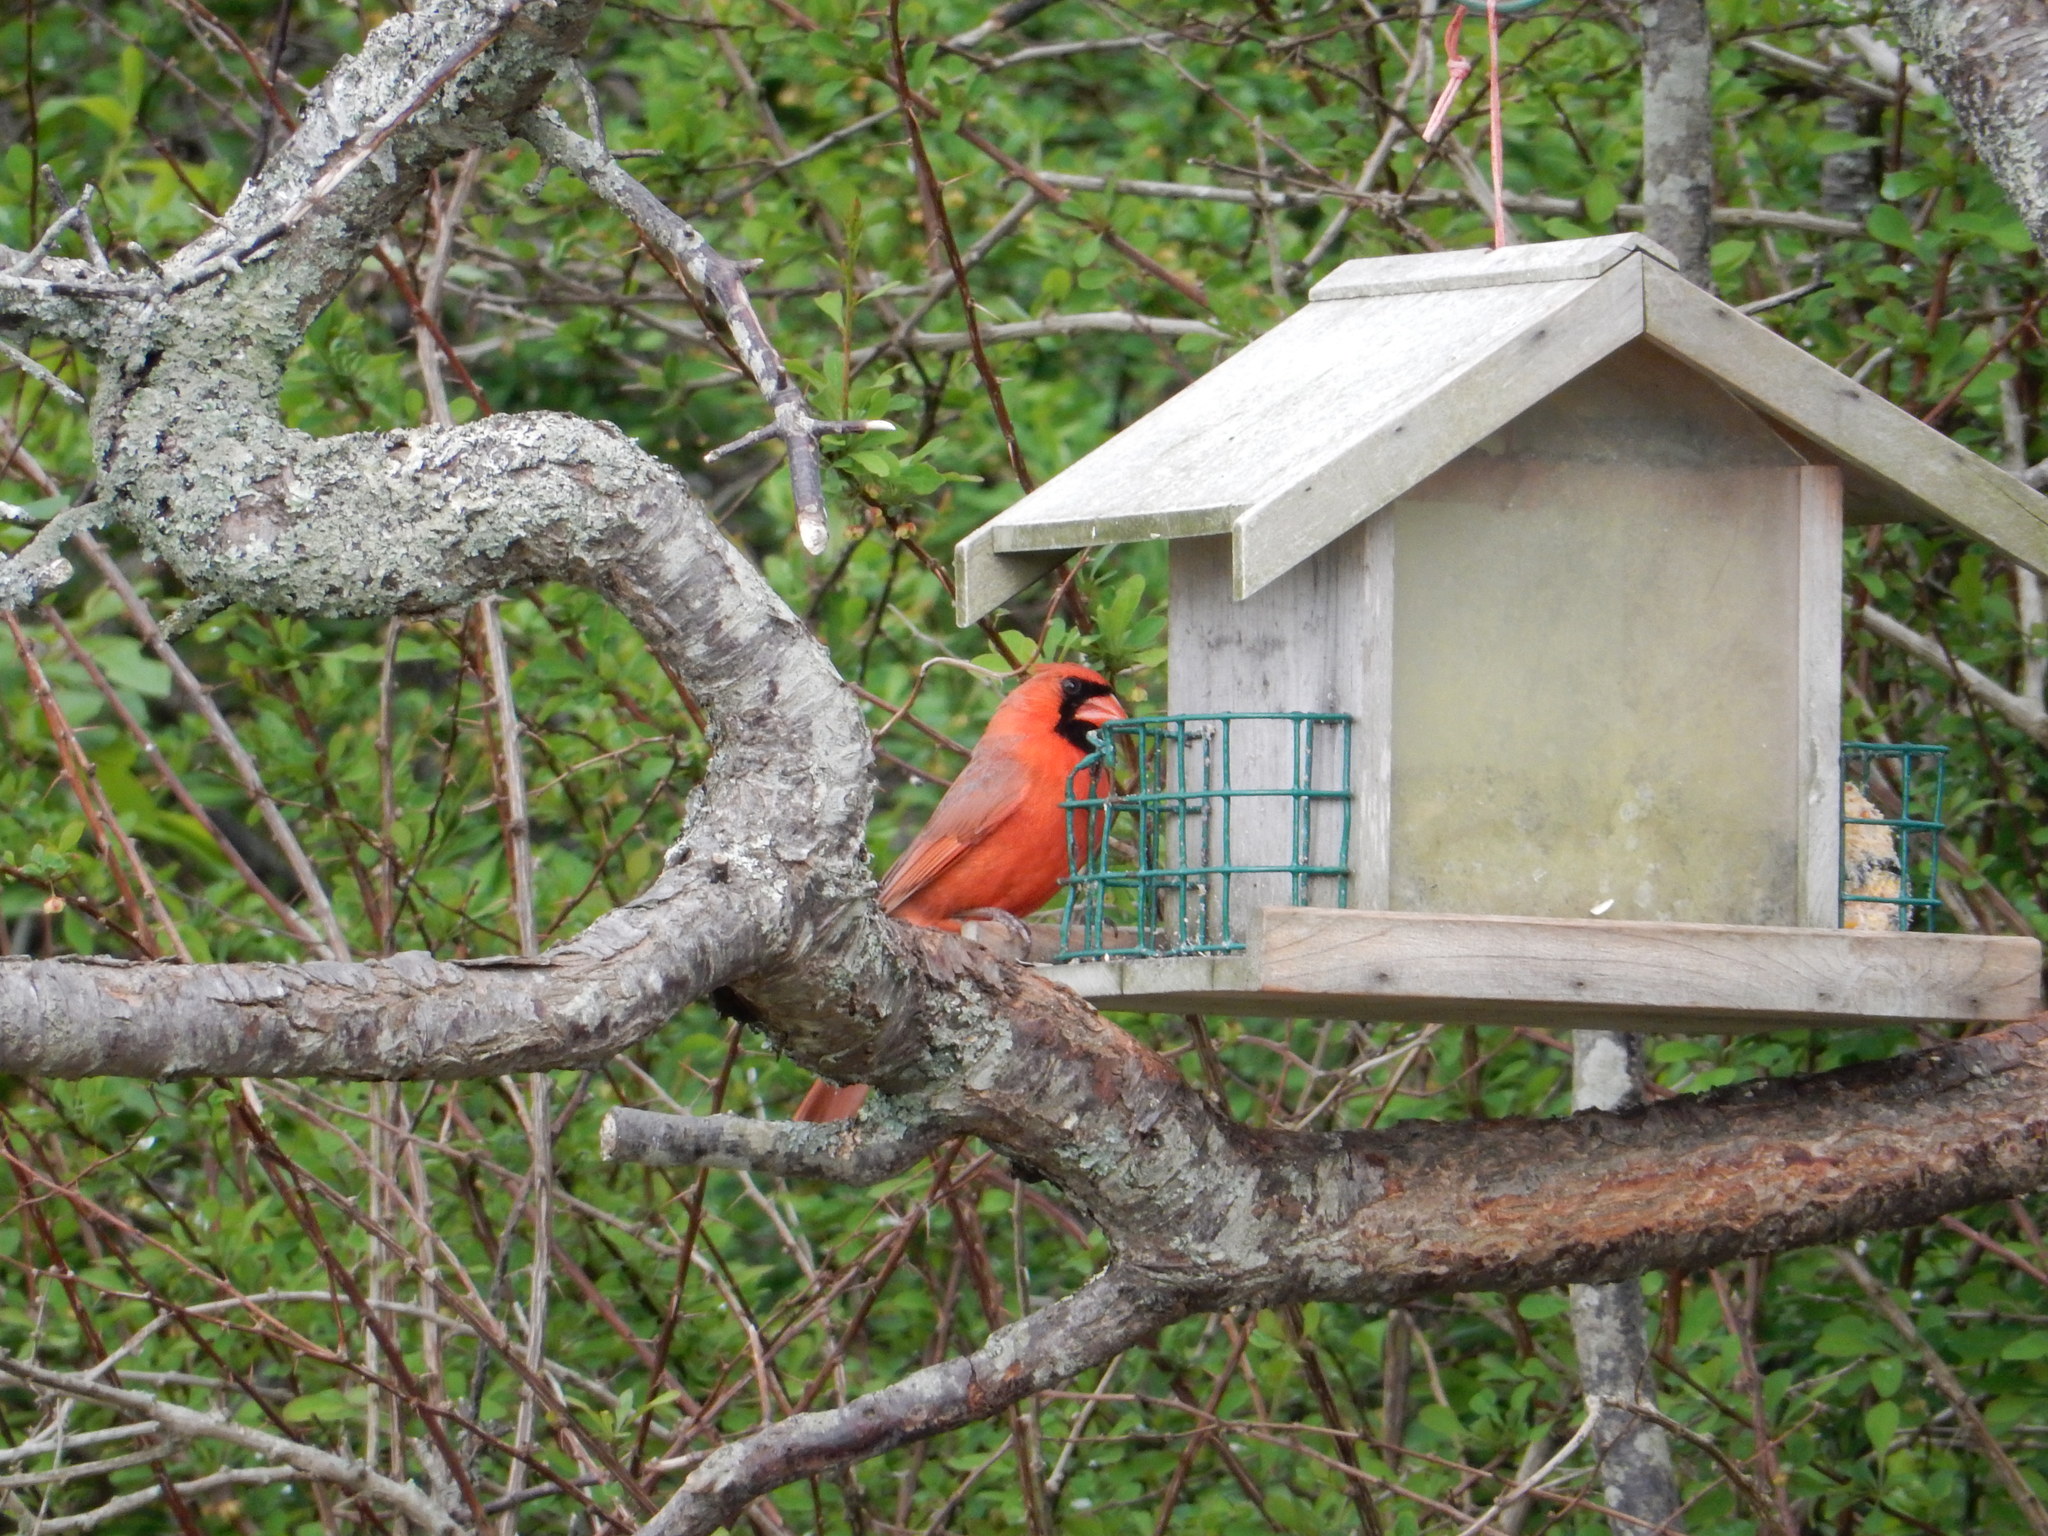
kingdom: Animalia
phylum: Chordata
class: Aves
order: Passeriformes
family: Cardinalidae
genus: Cardinalis
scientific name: Cardinalis cardinalis
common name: Northern cardinal
